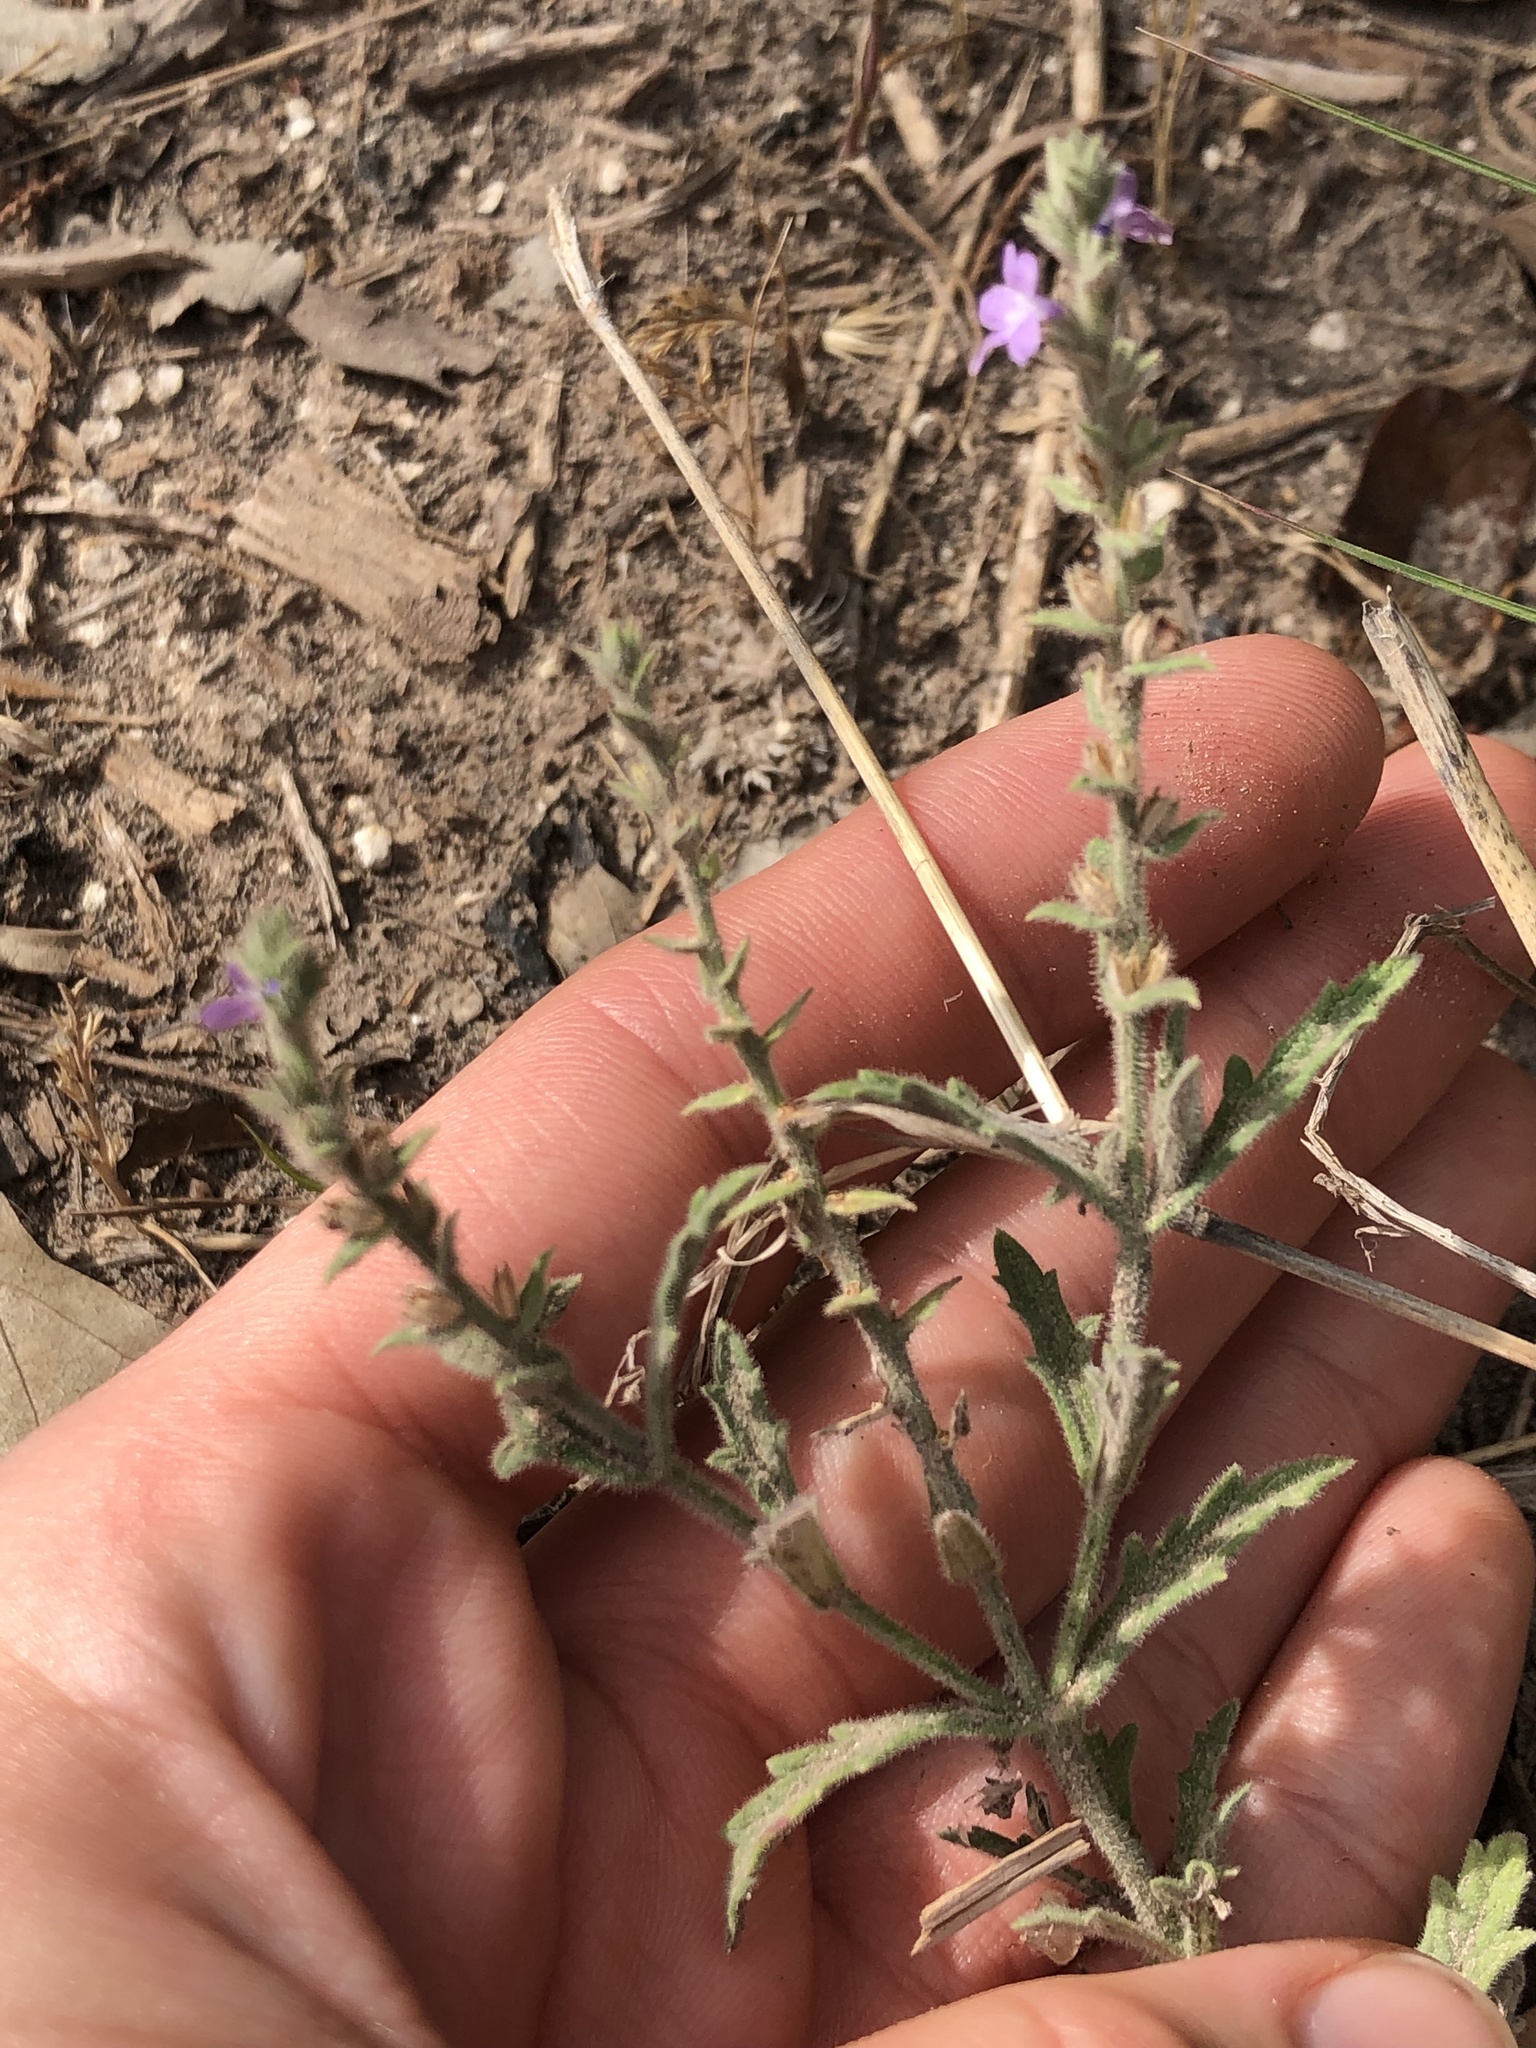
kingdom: Plantae
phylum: Tracheophyta
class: Magnoliopsida
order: Lamiales
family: Verbenaceae
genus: Verbena
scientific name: Verbena canescens
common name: Gray vervain
